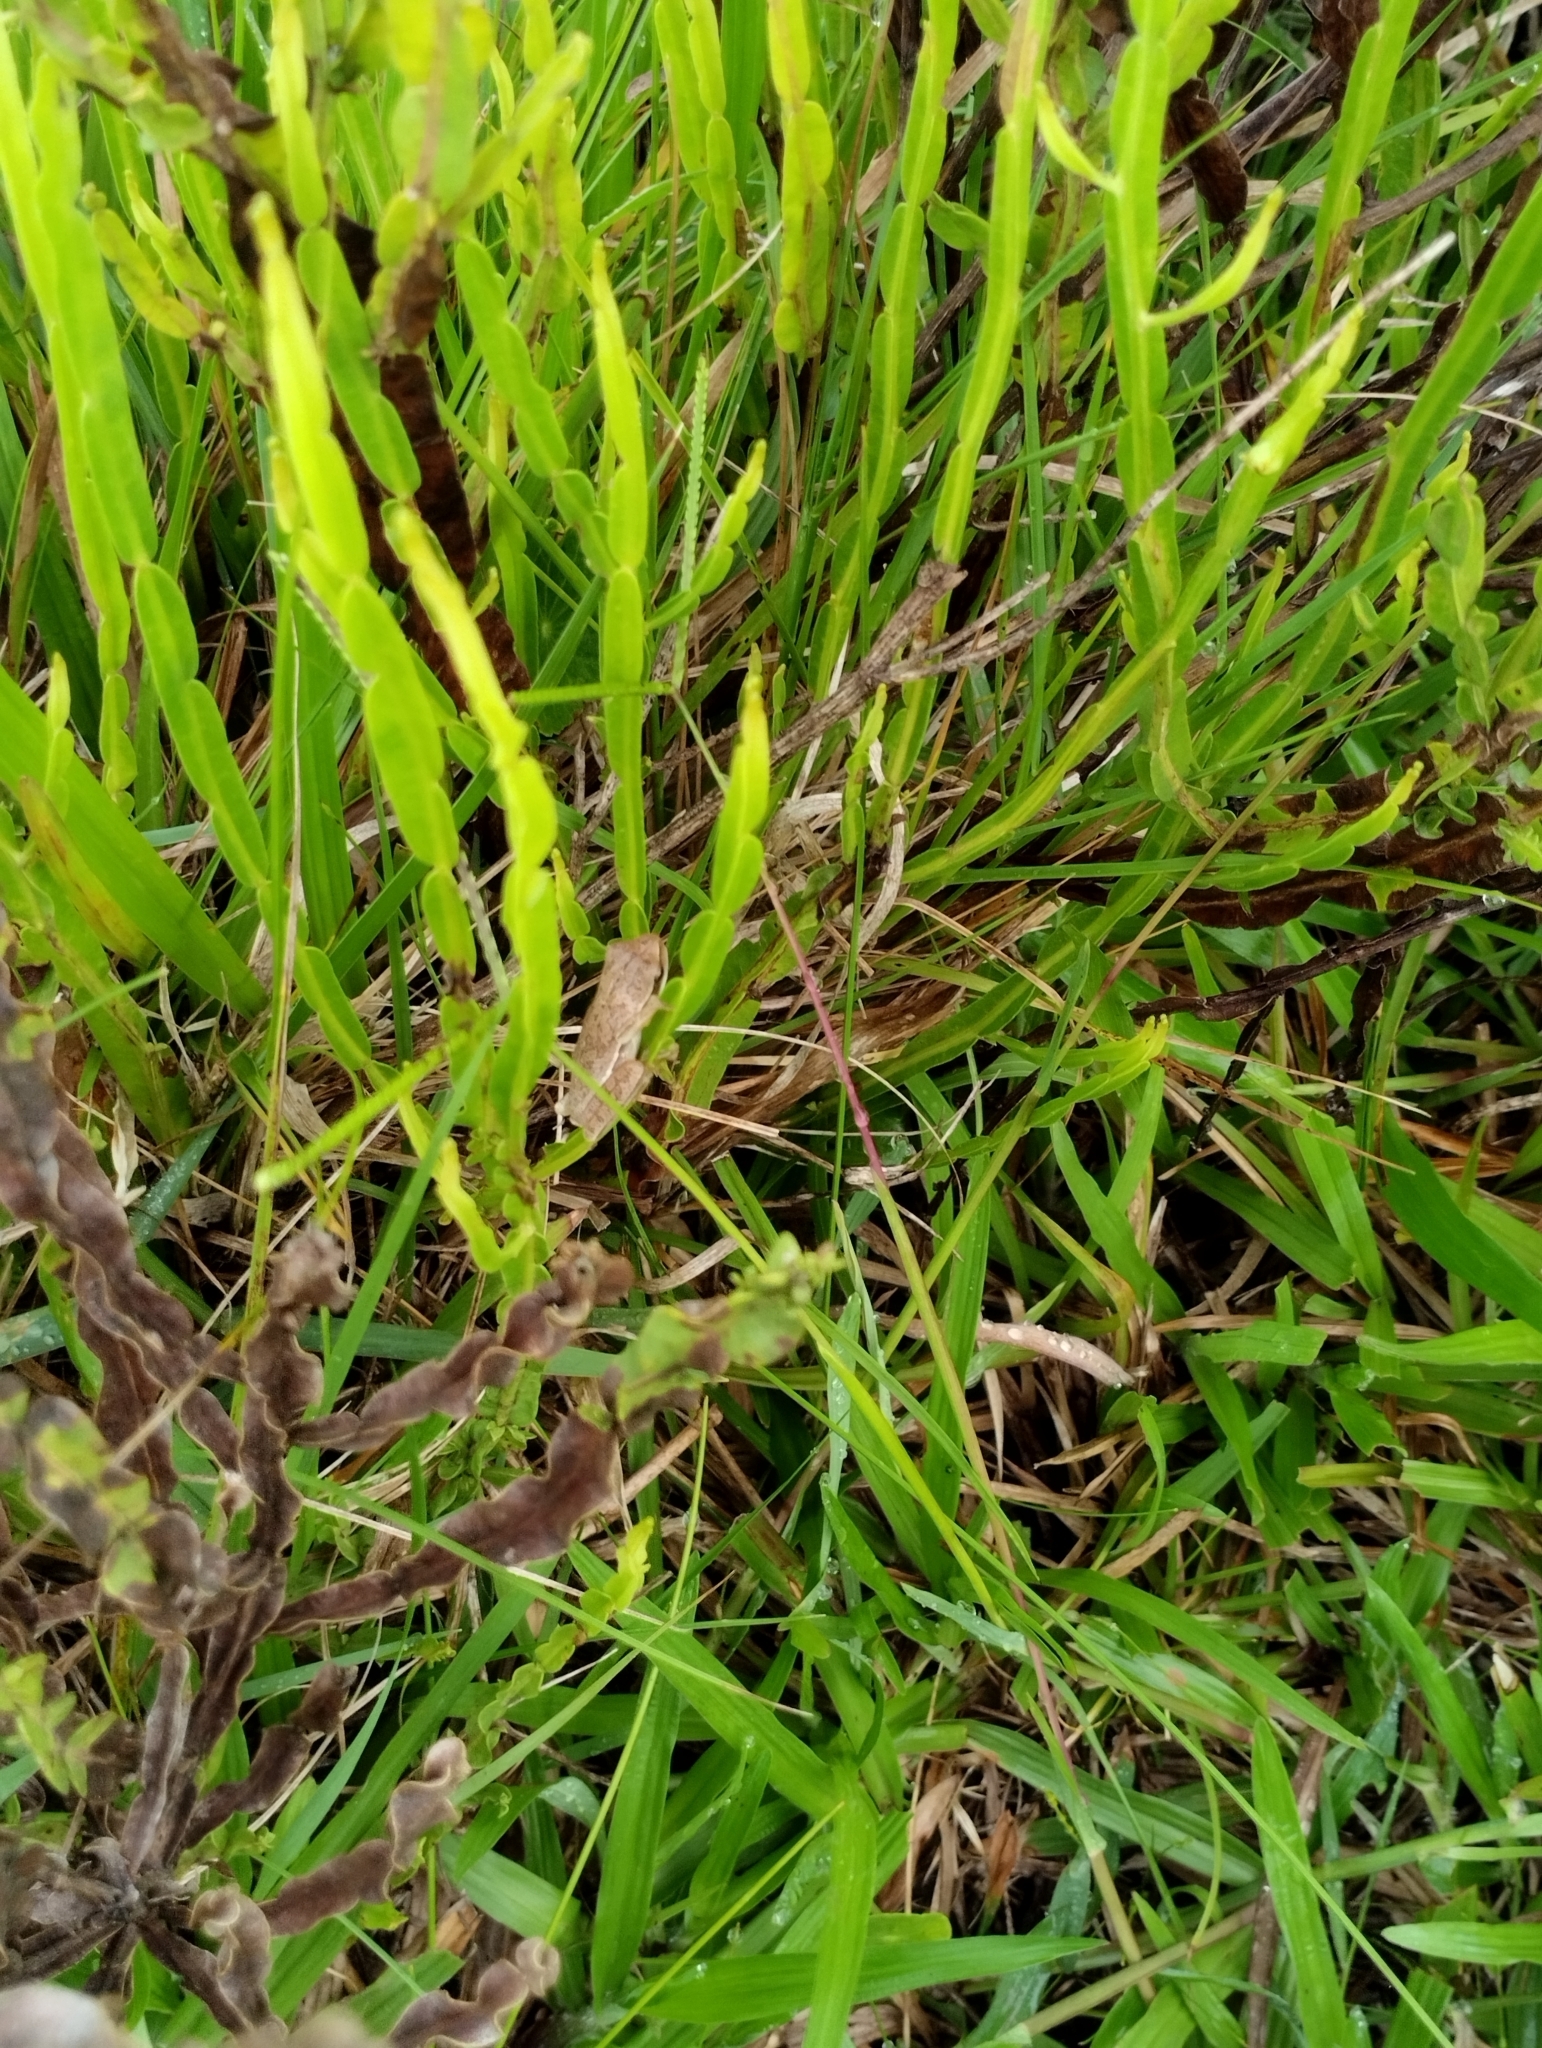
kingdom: Animalia
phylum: Chordata
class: Amphibia
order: Anura
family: Hylidae
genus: Boana
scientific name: Boana pulchella
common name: Montevideo treefrog
